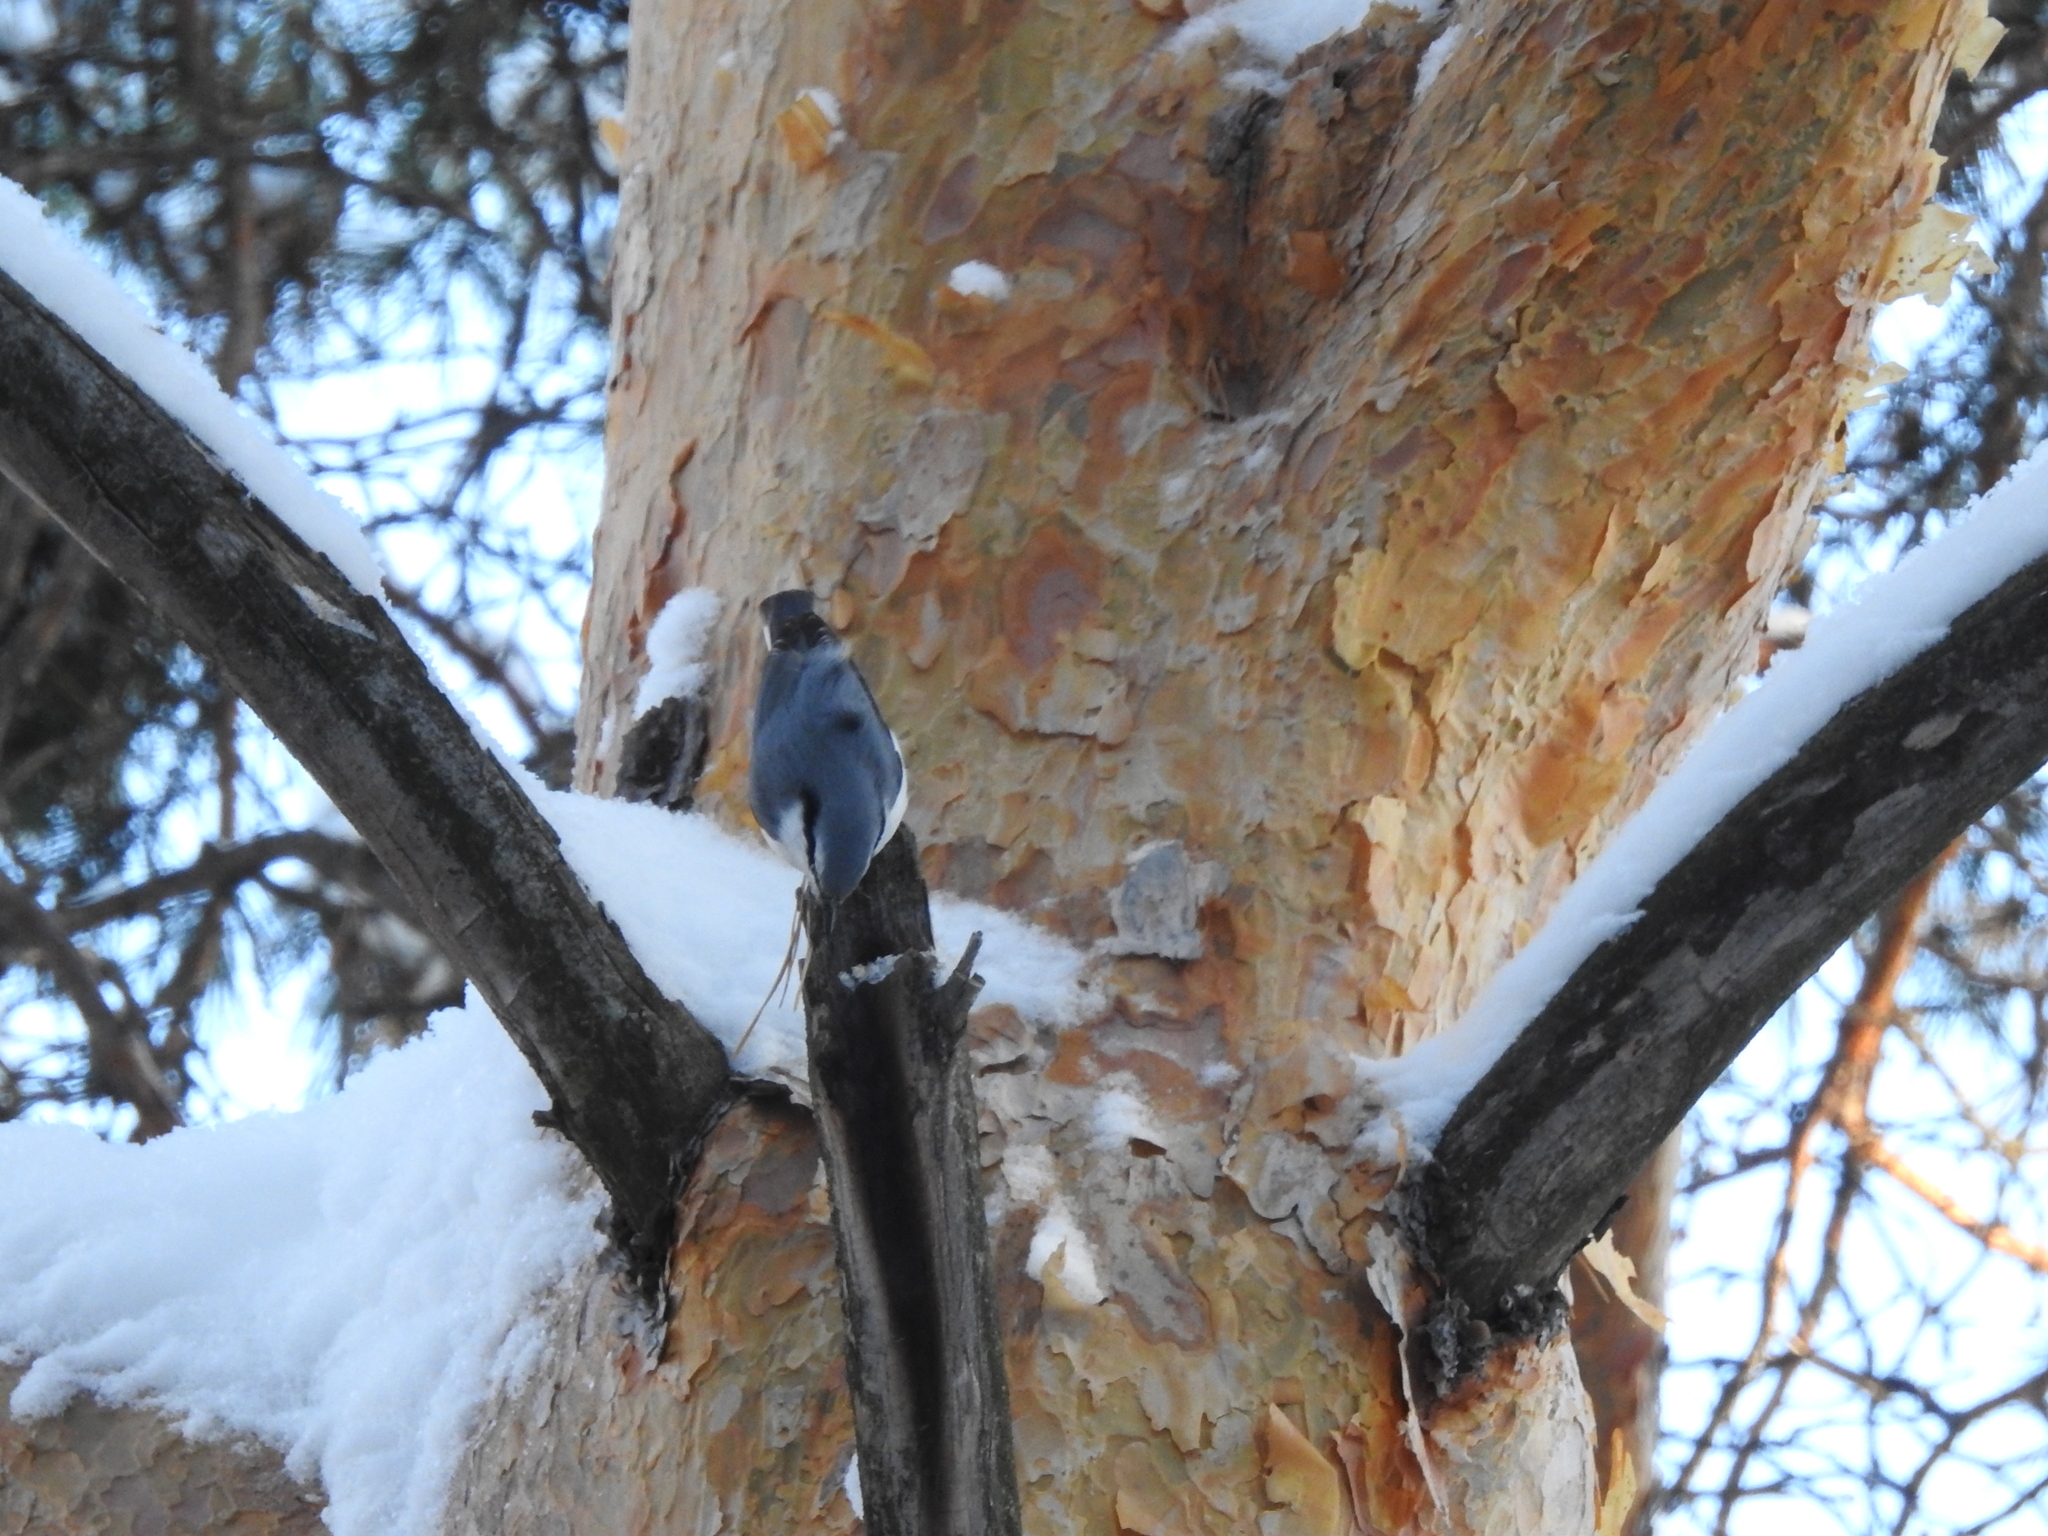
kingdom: Animalia
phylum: Chordata
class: Aves
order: Passeriformes
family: Sittidae
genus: Sitta
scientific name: Sitta europaea
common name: Eurasian nuthatch
